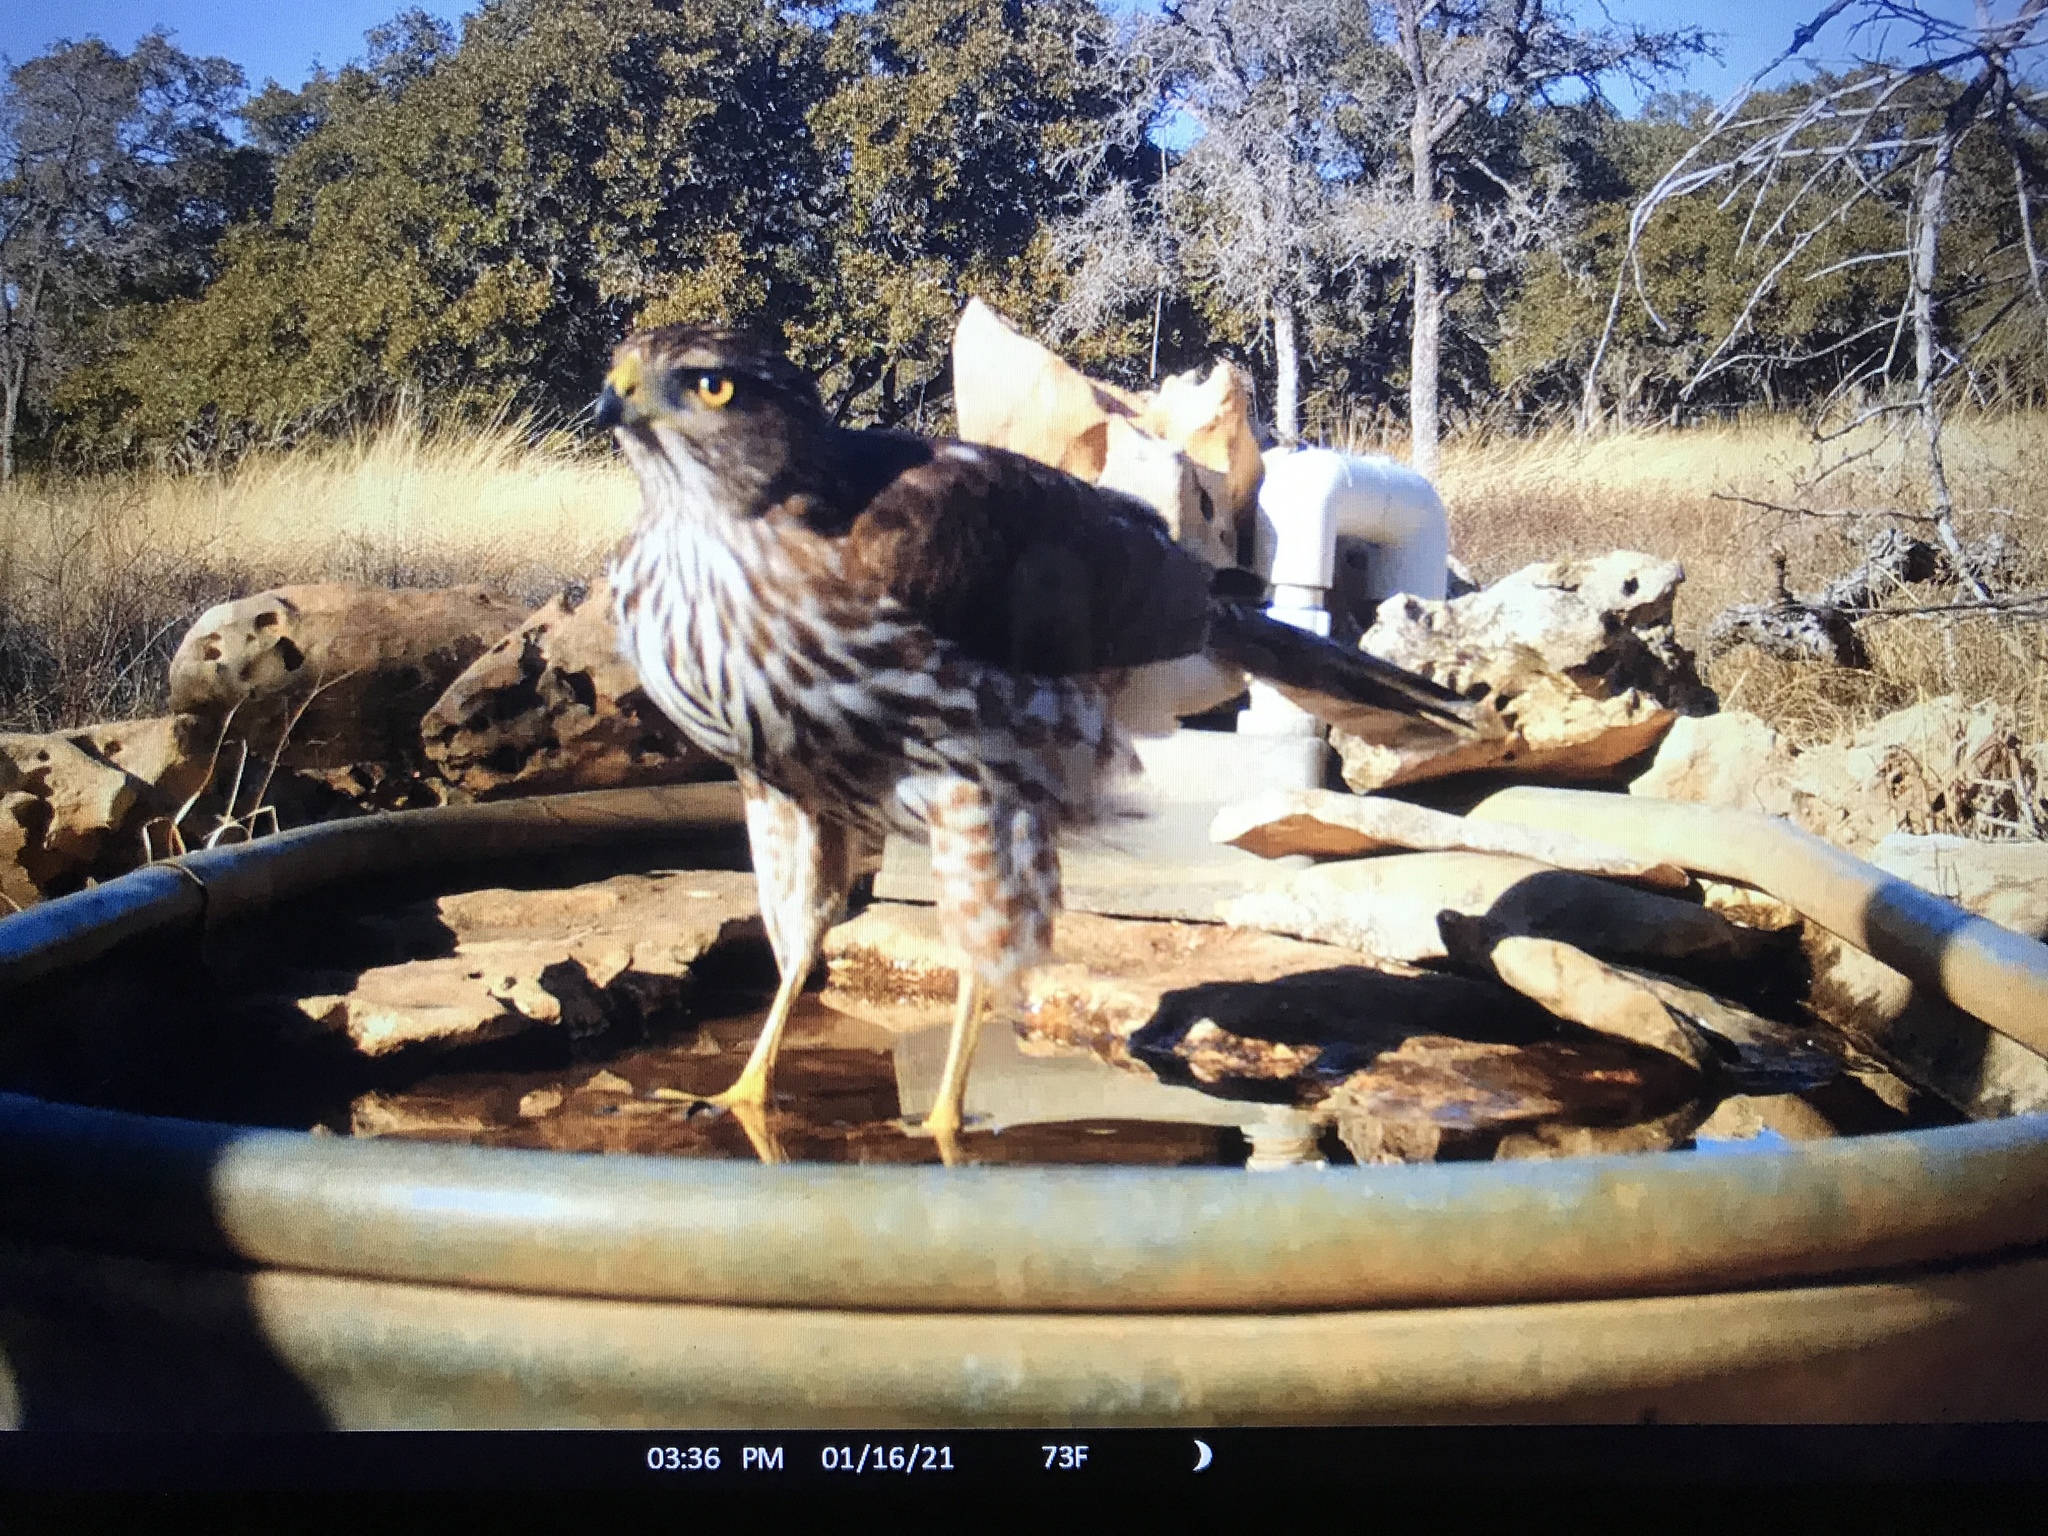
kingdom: Animalia
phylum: Chordata
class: Aves
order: Accipitriformes
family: Accipitridae
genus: Accipiter
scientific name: Accipiter cooperii
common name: Cooper's hawk
